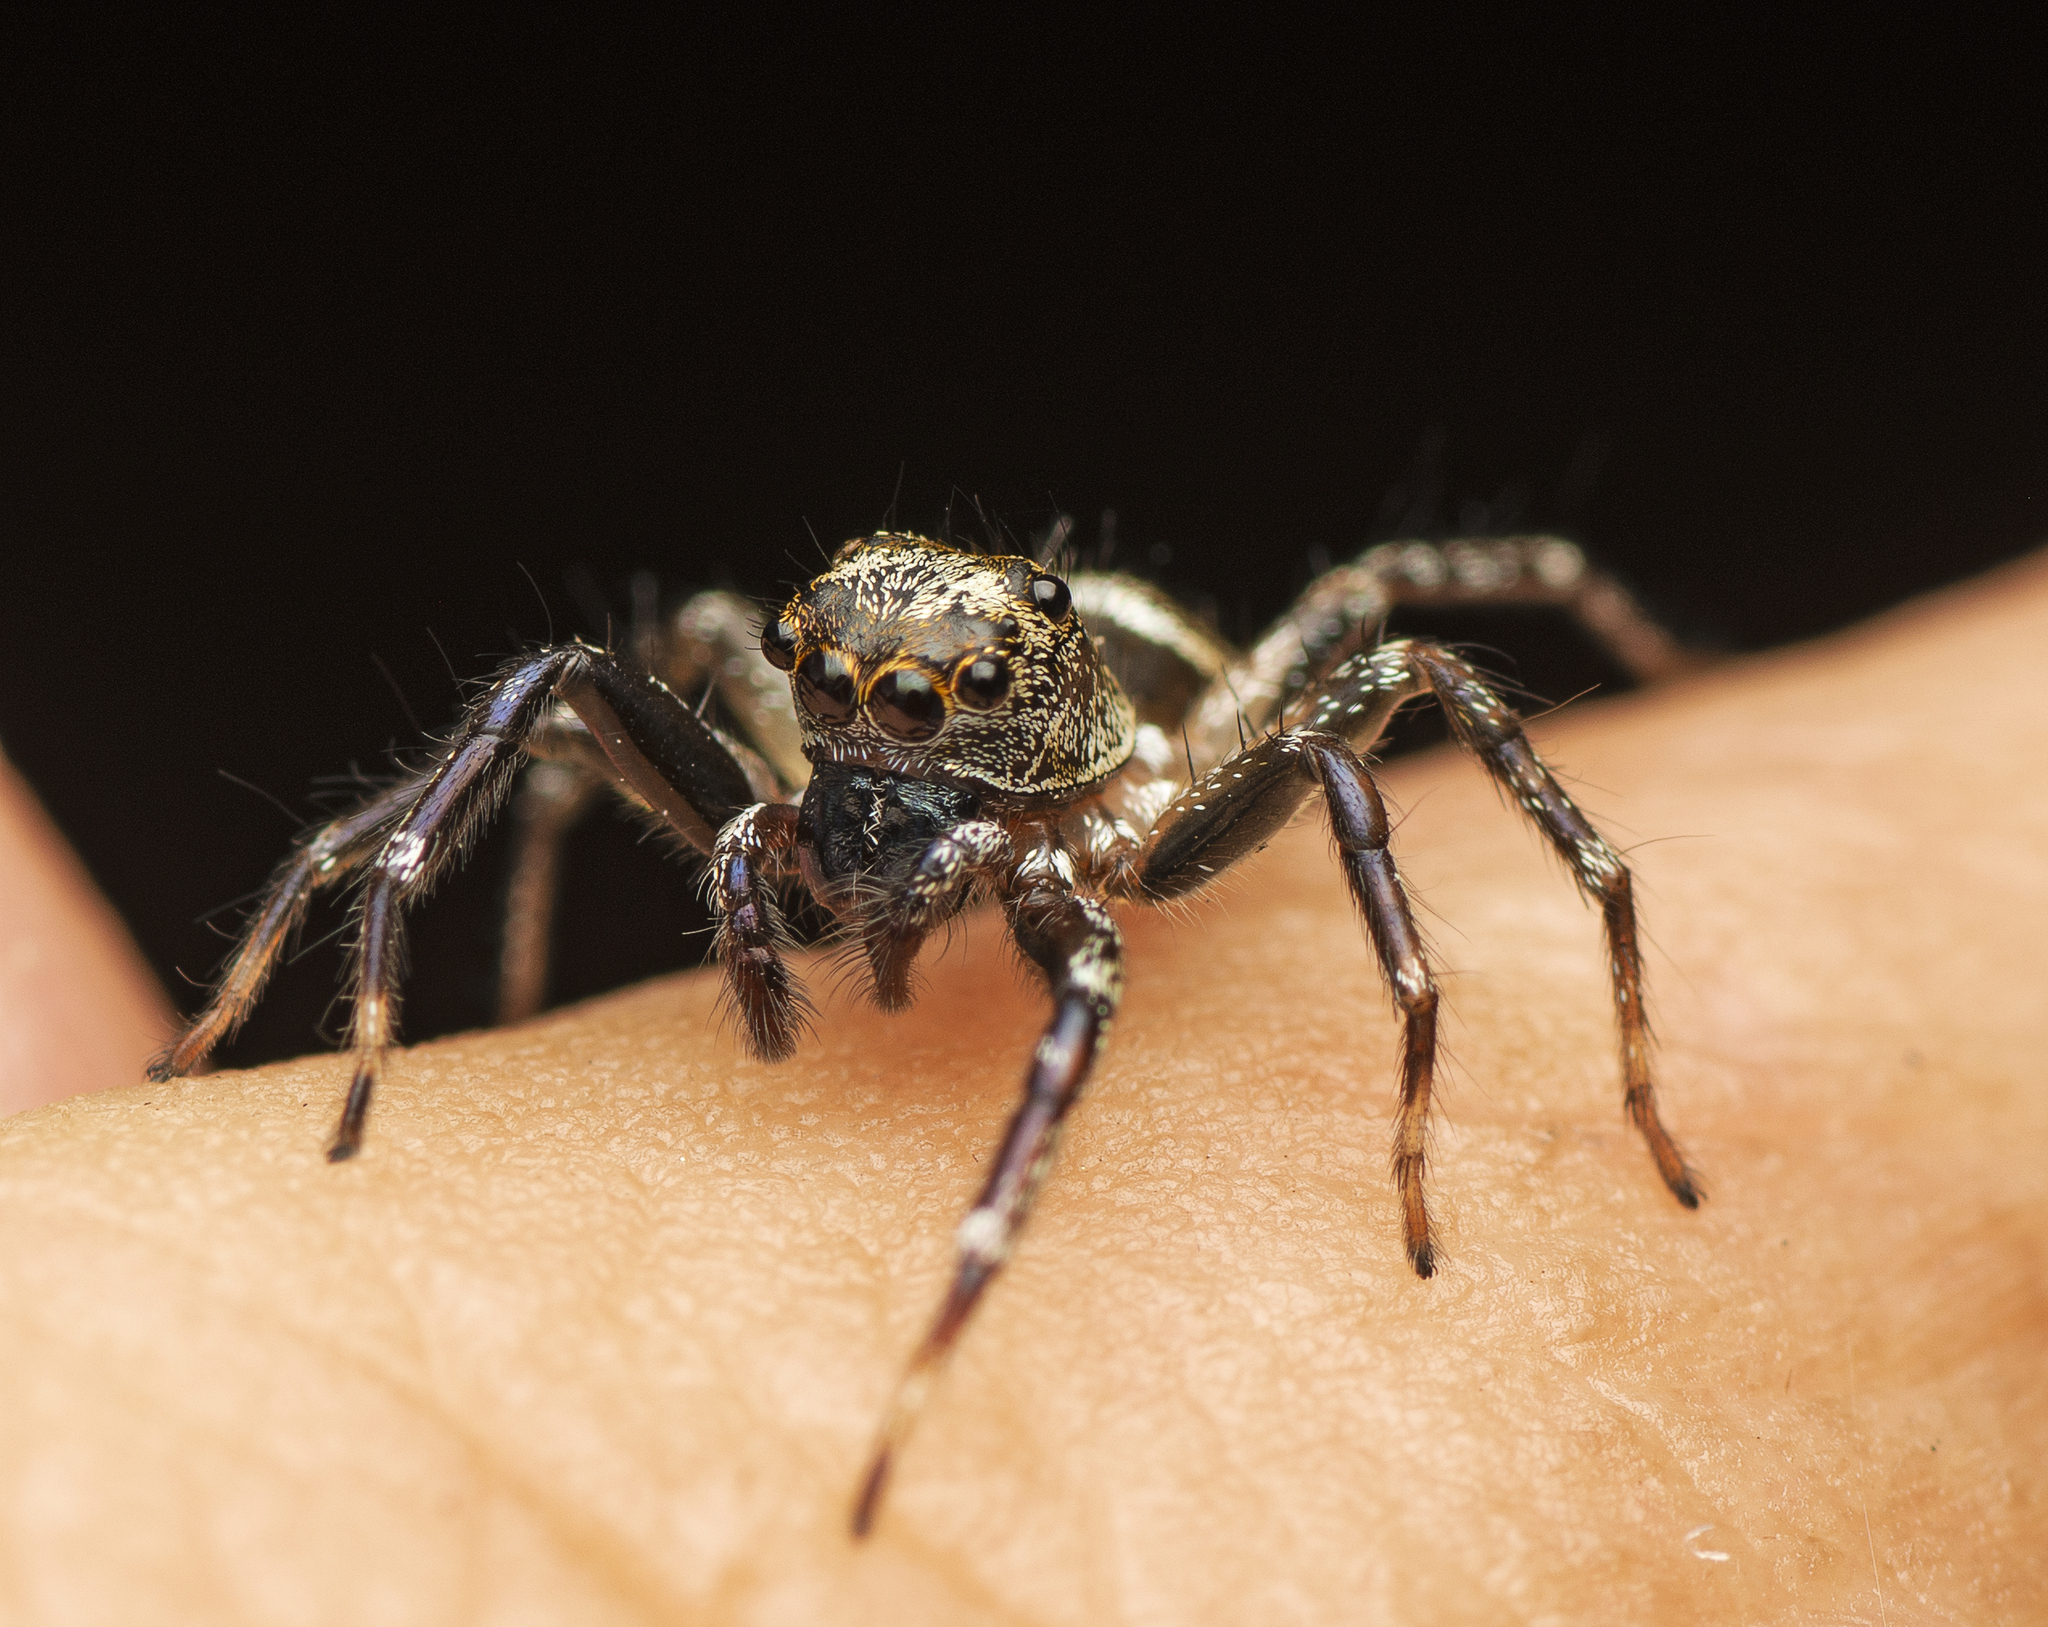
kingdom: Animalia
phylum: Arthropoda
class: Arachnida
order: Araneae
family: Salticidae
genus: Zenodorus
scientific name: Zenodorus swiftorum
